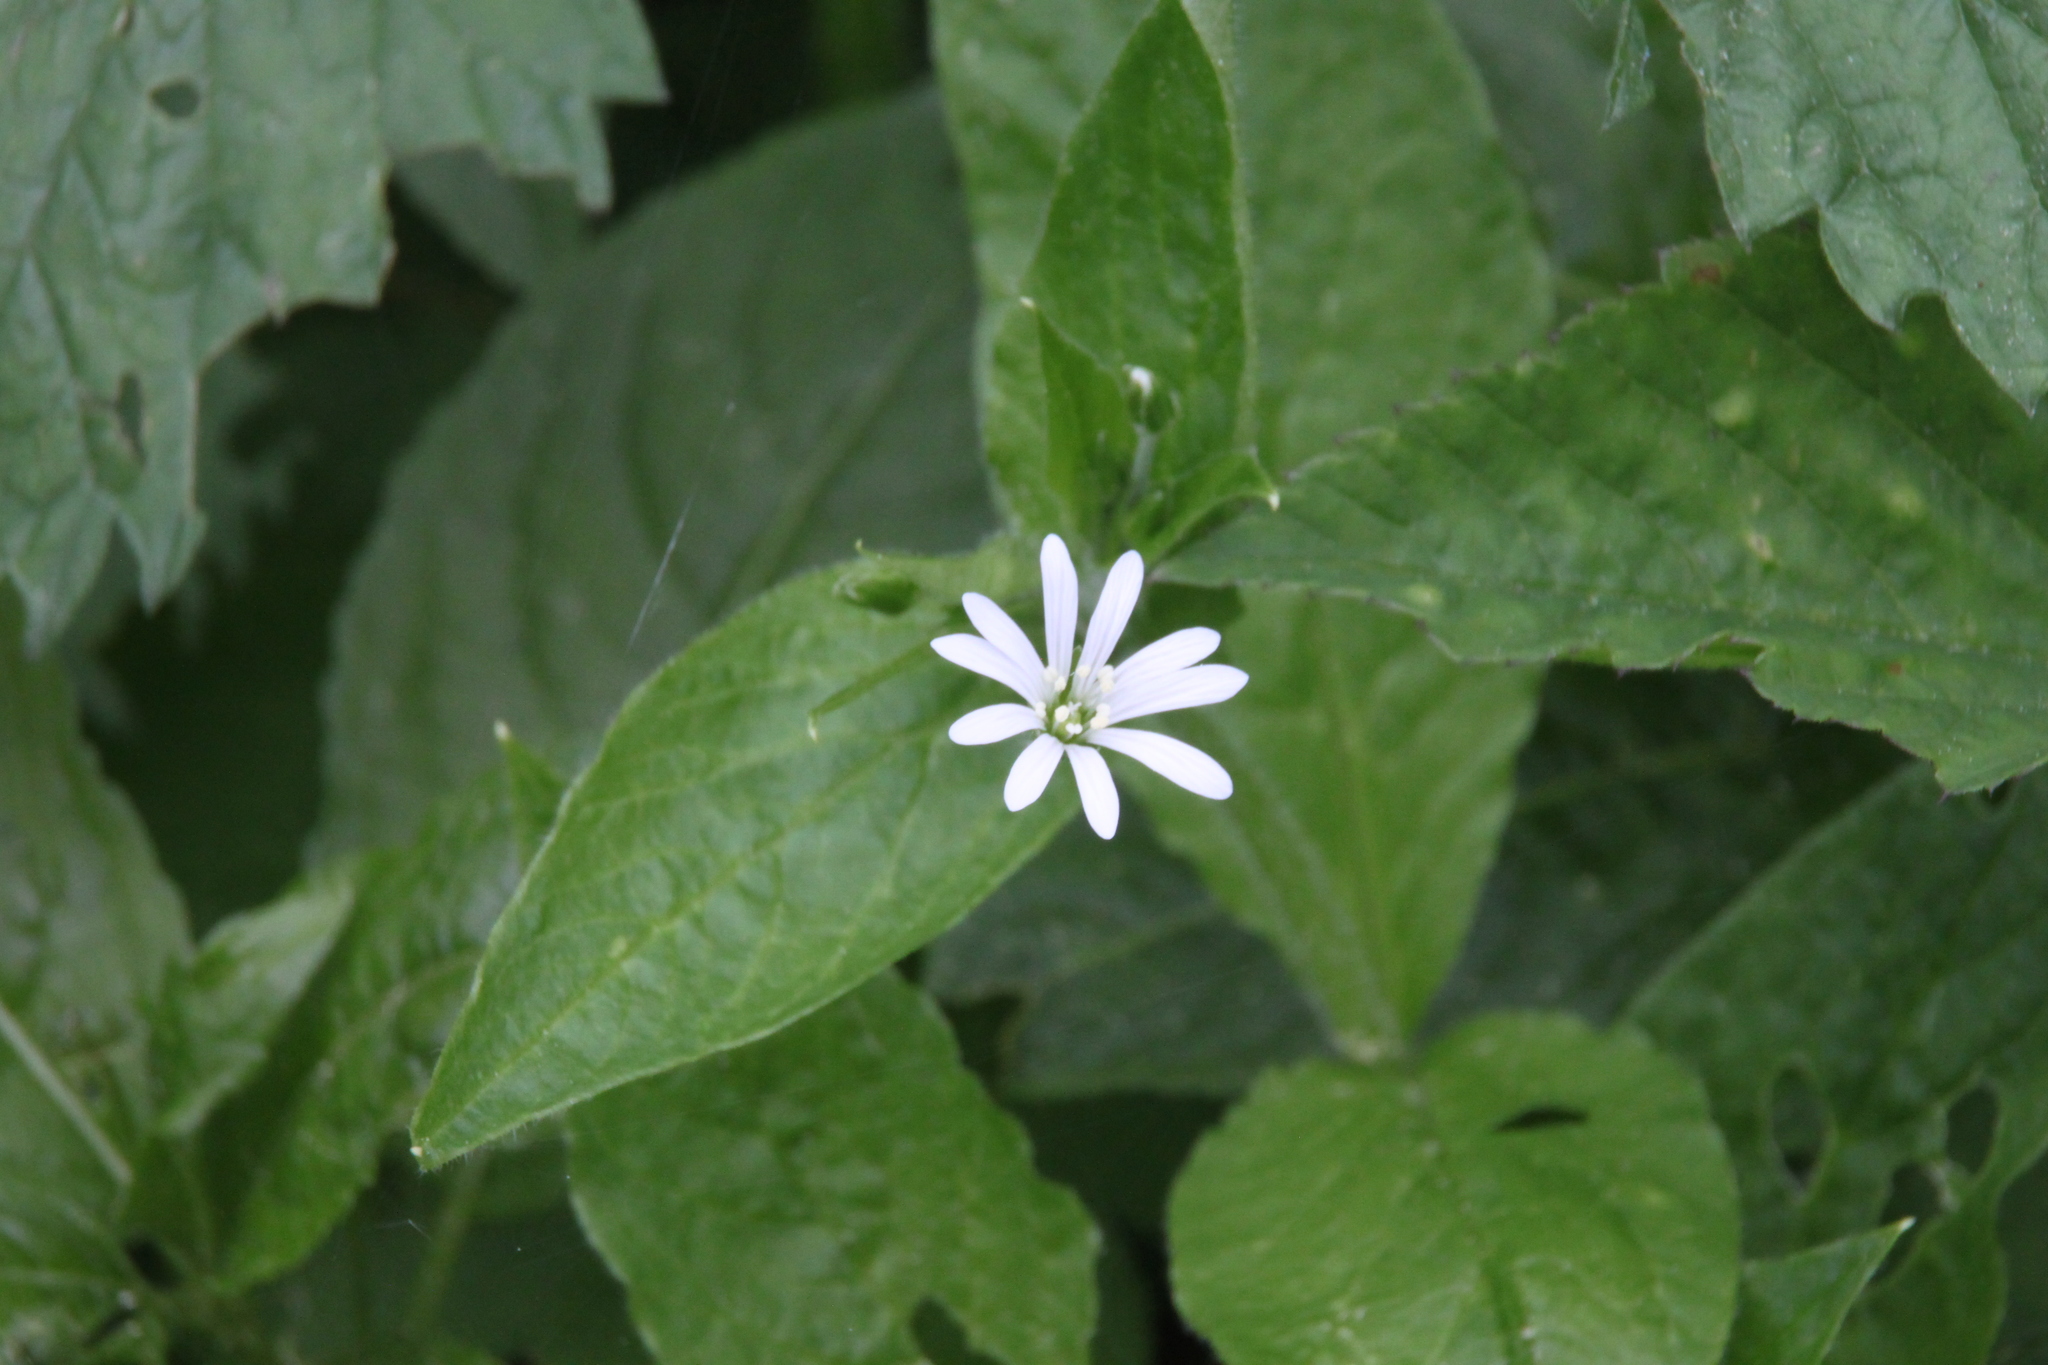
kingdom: Plantae
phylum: Tracheophyta
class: Magnoliopsida
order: Caryophyllales
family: Caryophyllaceae
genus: Stellaria
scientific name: Stellaria nemorum
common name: Wood stitchwort
